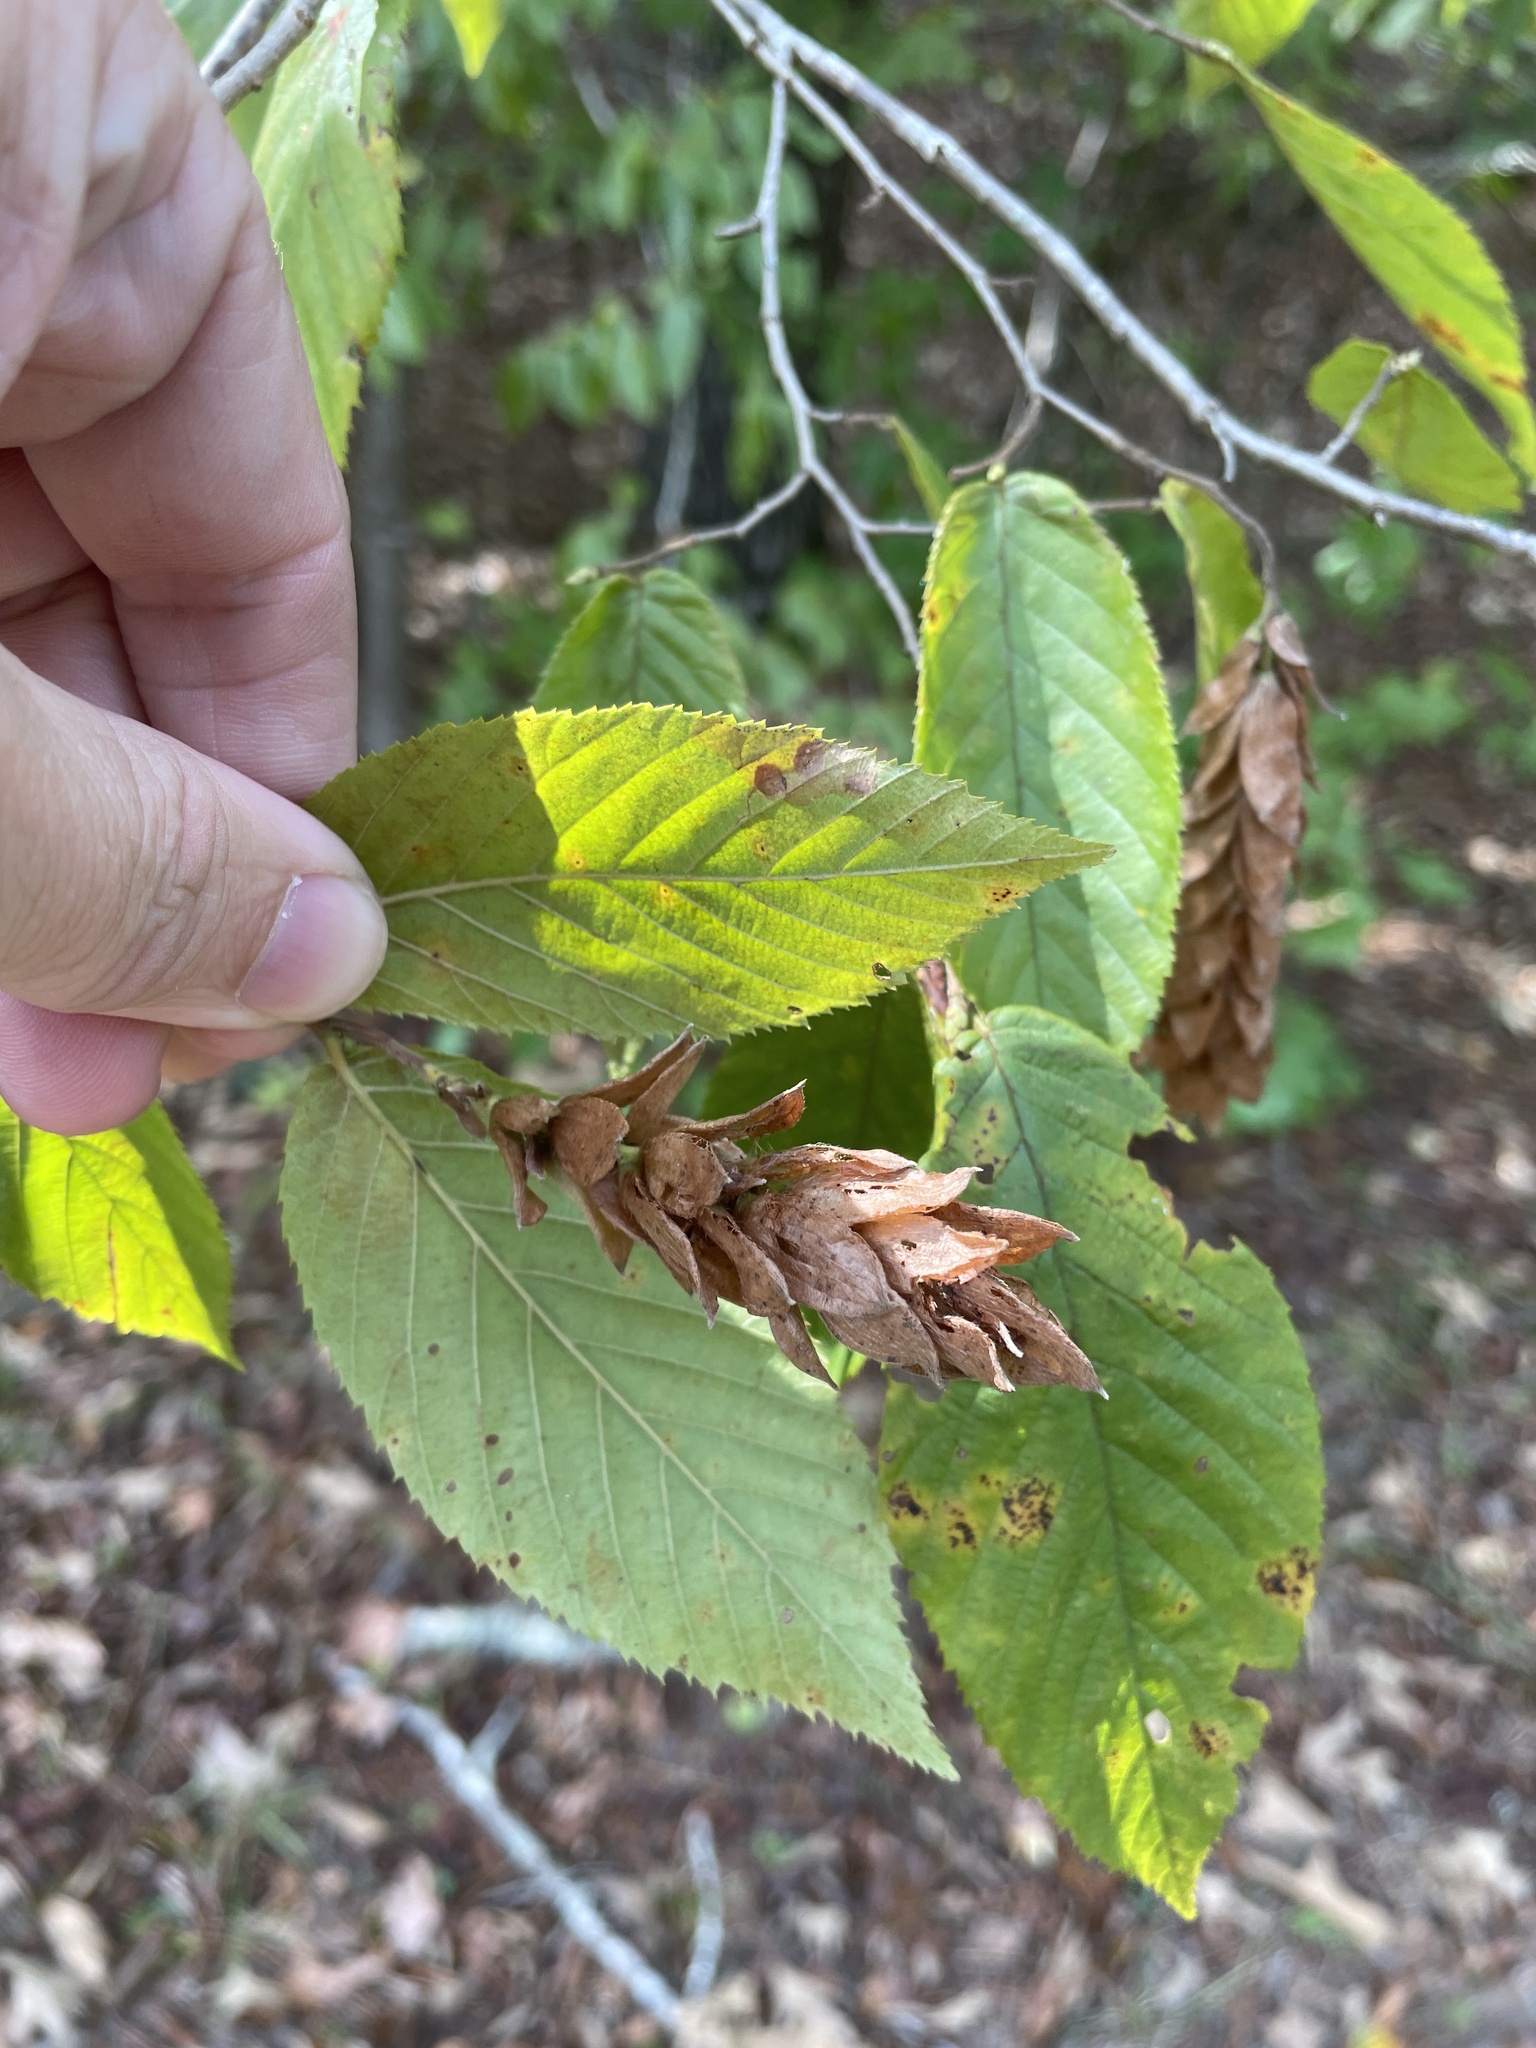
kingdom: Plantae
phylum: Tracheophyta
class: Magnoliopsida
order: Fagales
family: Betulaceae
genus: Carpinus
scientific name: Carpinus caroliniana
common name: American hornbeam
